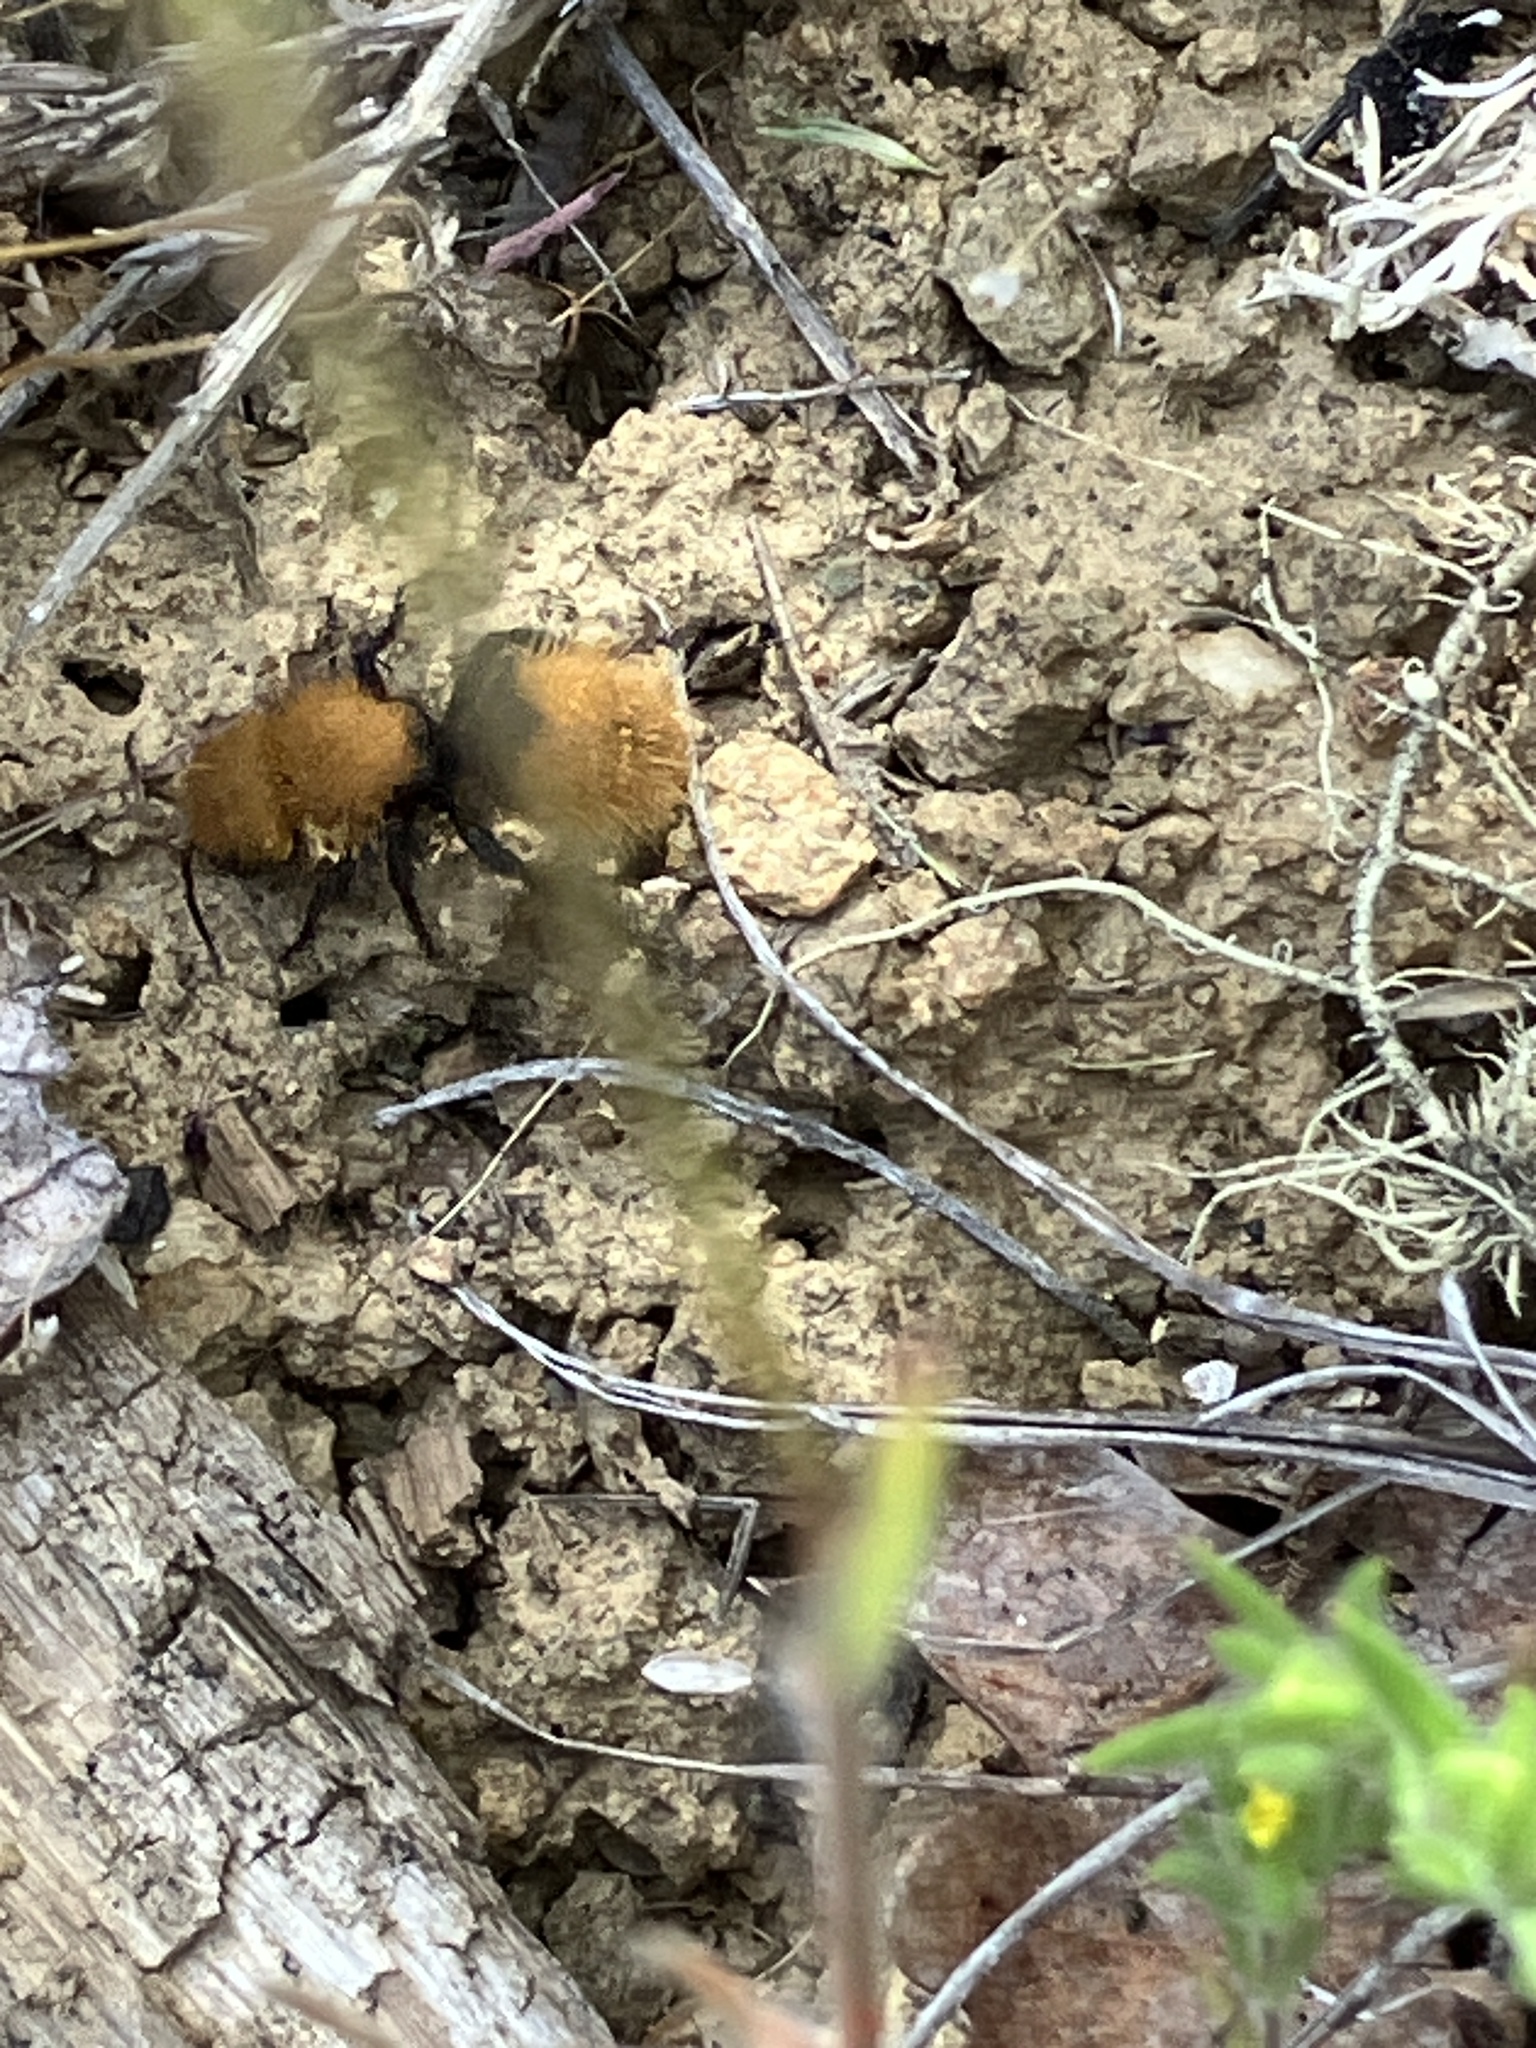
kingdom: Animalia
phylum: Arthropoda
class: Insecta
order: Hymenoptera
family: Mutillidae
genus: Dasymutilla
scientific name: Dasymutilla
